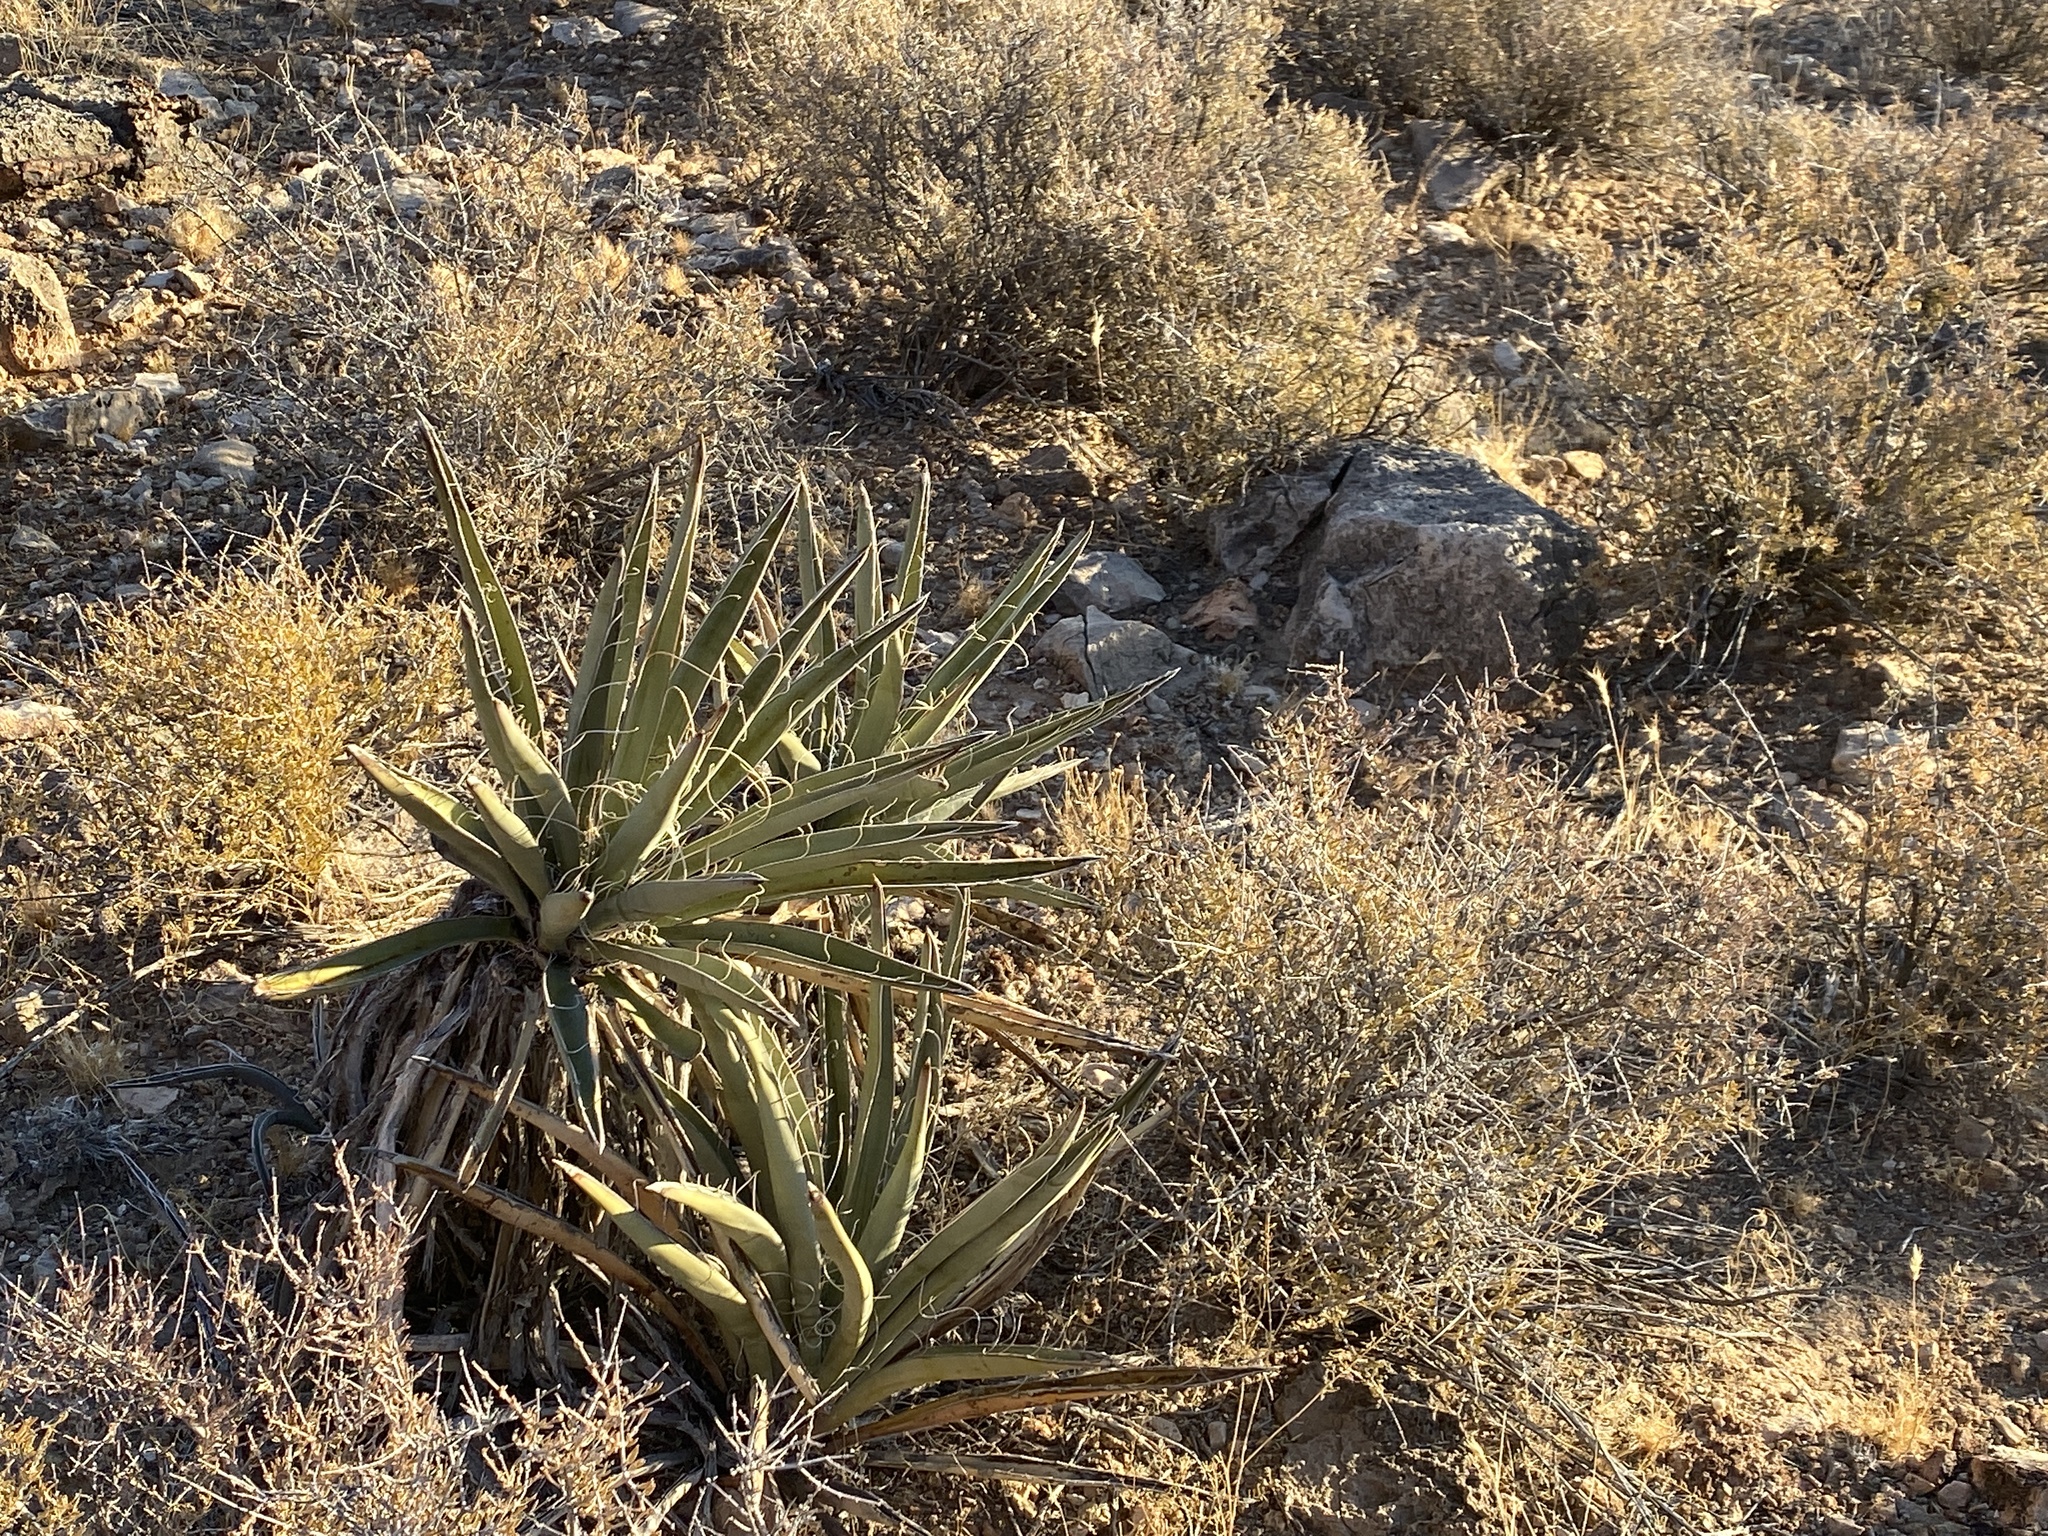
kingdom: Plantae
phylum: Tracheophyta
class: Liliopsida
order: Asparagales
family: Asparagaceae
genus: Yucca
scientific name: Yucca baccata
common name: Banana yucca
